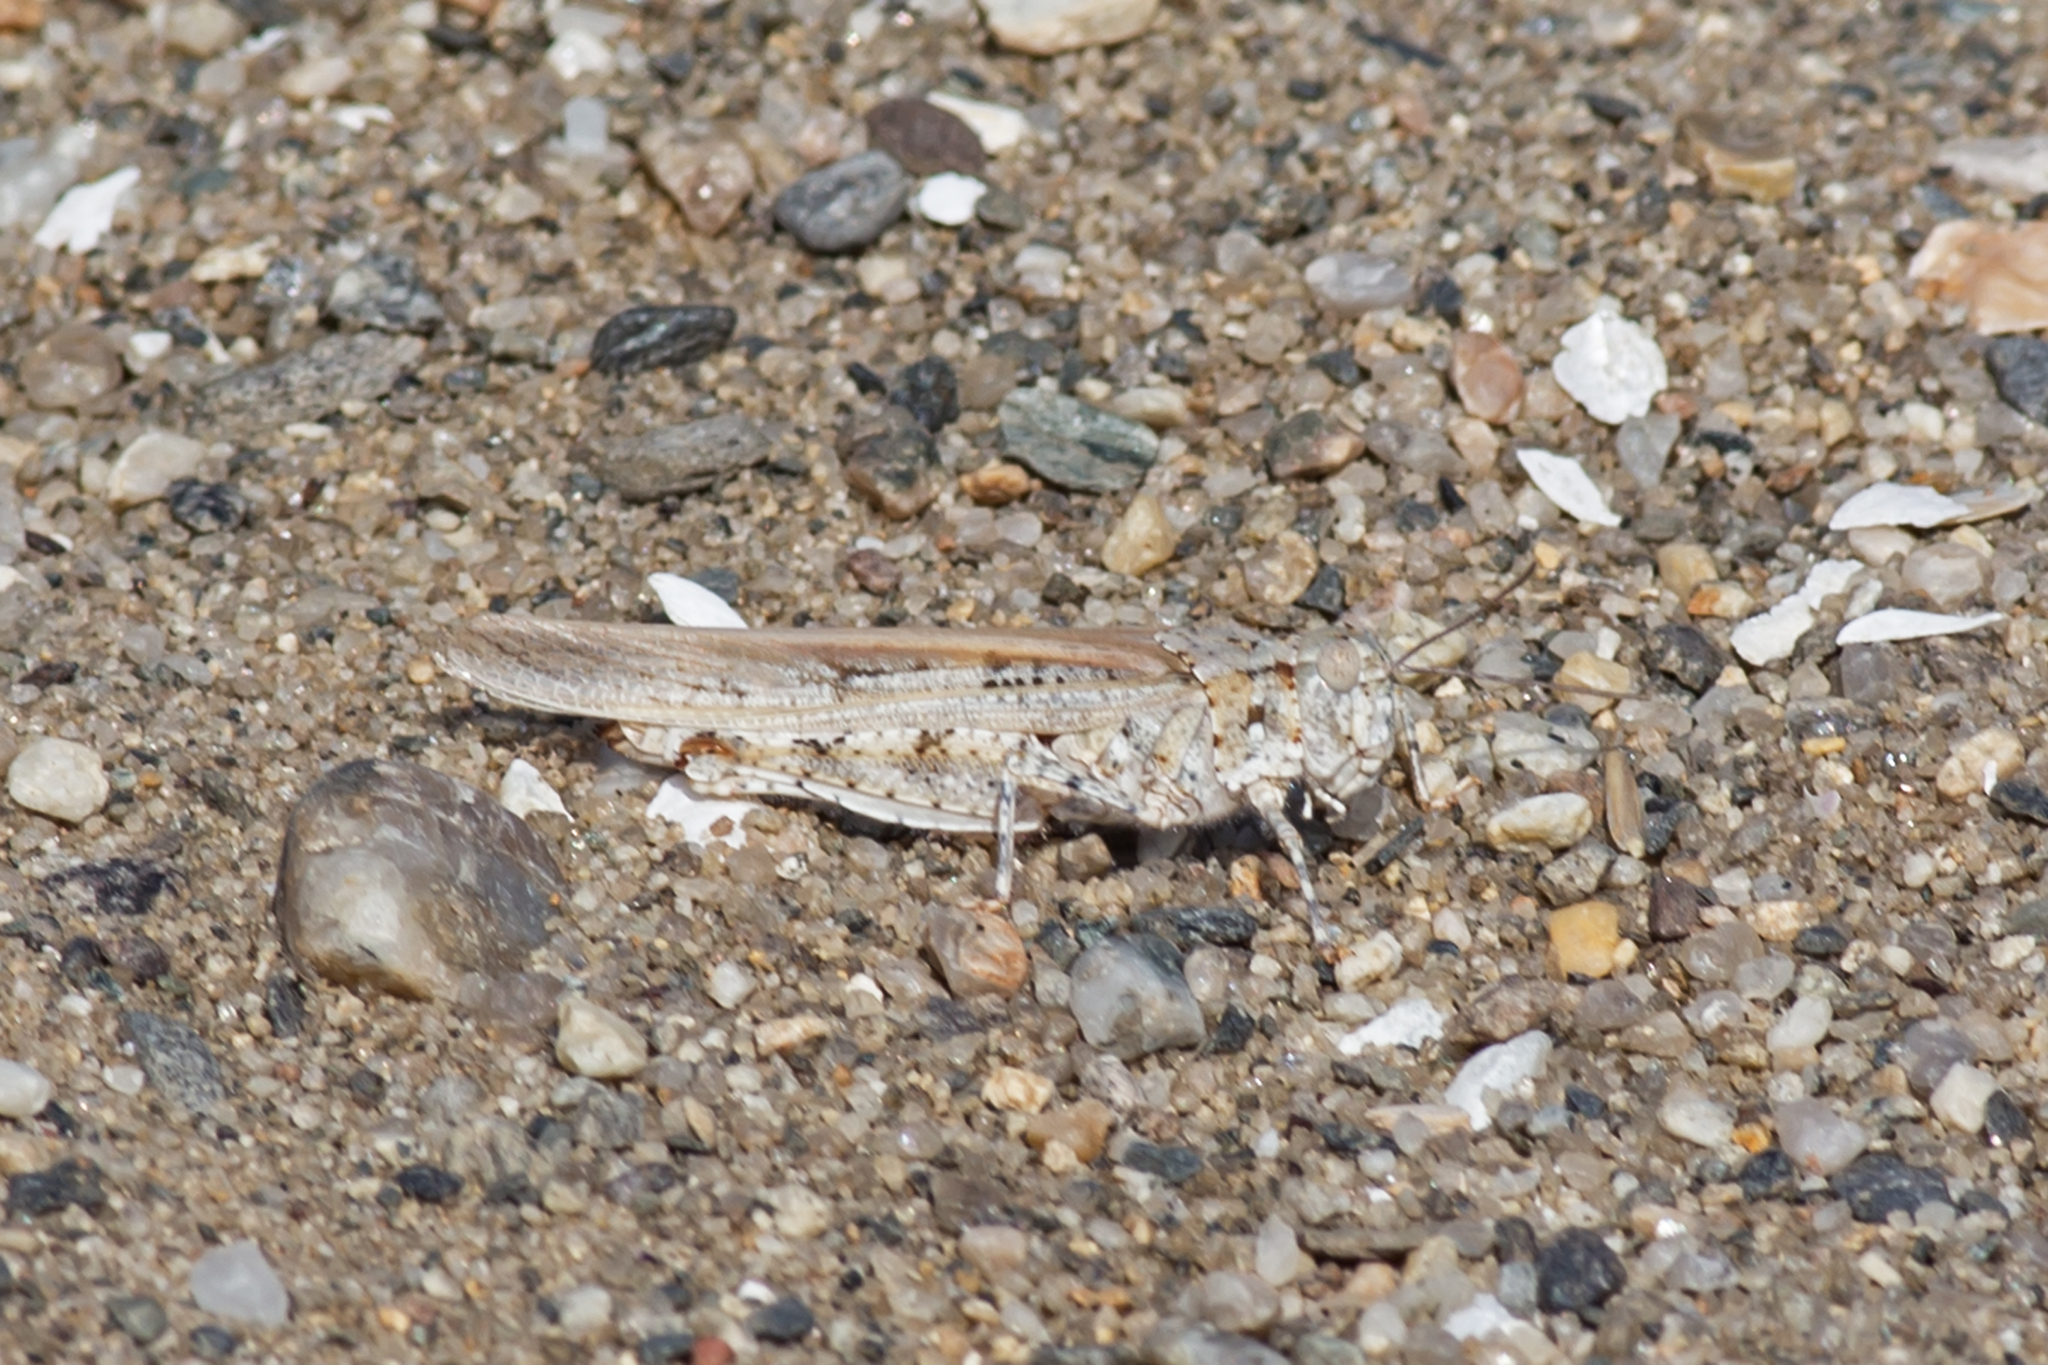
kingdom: Animalia
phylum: Arthropoda
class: Insecta
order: Orthoptera
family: Acrididae
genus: Trimerotropis
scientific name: Trimerotropis maritima
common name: Seaside locust
